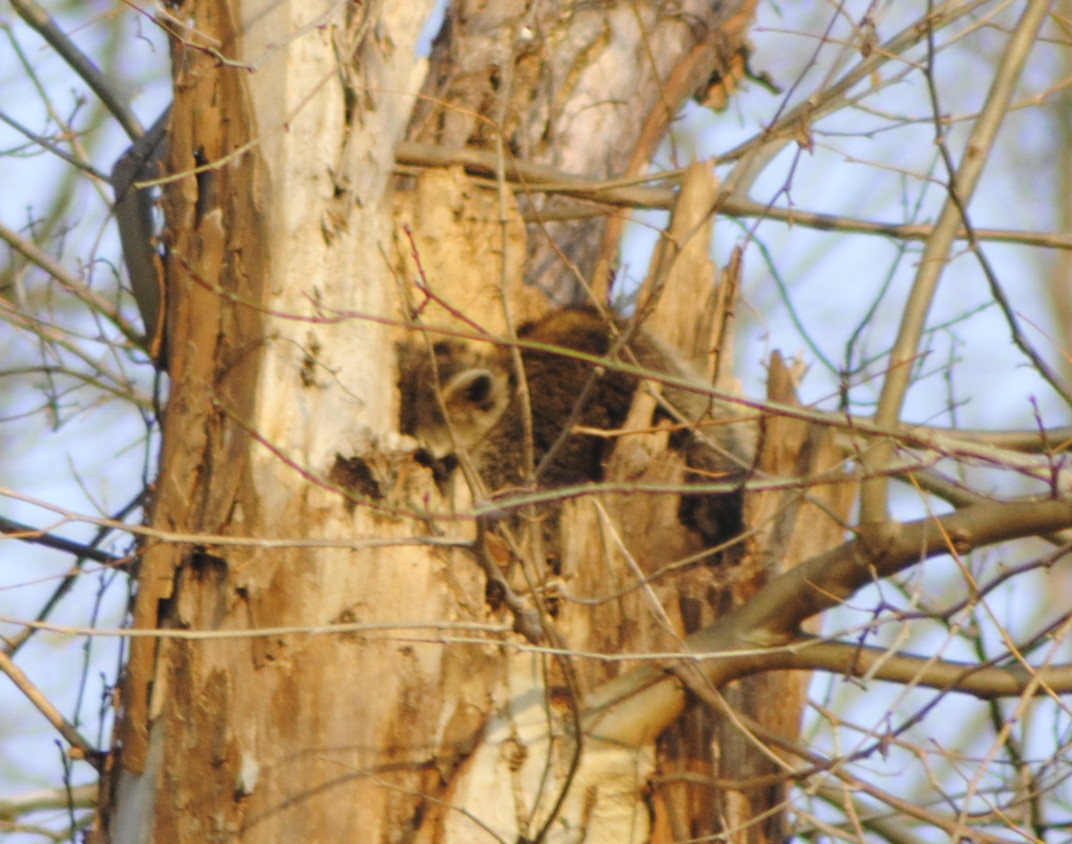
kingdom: Animalia
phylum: Chordata
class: Mammalia
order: Carnivora
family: Procyonidae
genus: Procyon
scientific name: Procyon lotor
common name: Raccoon
